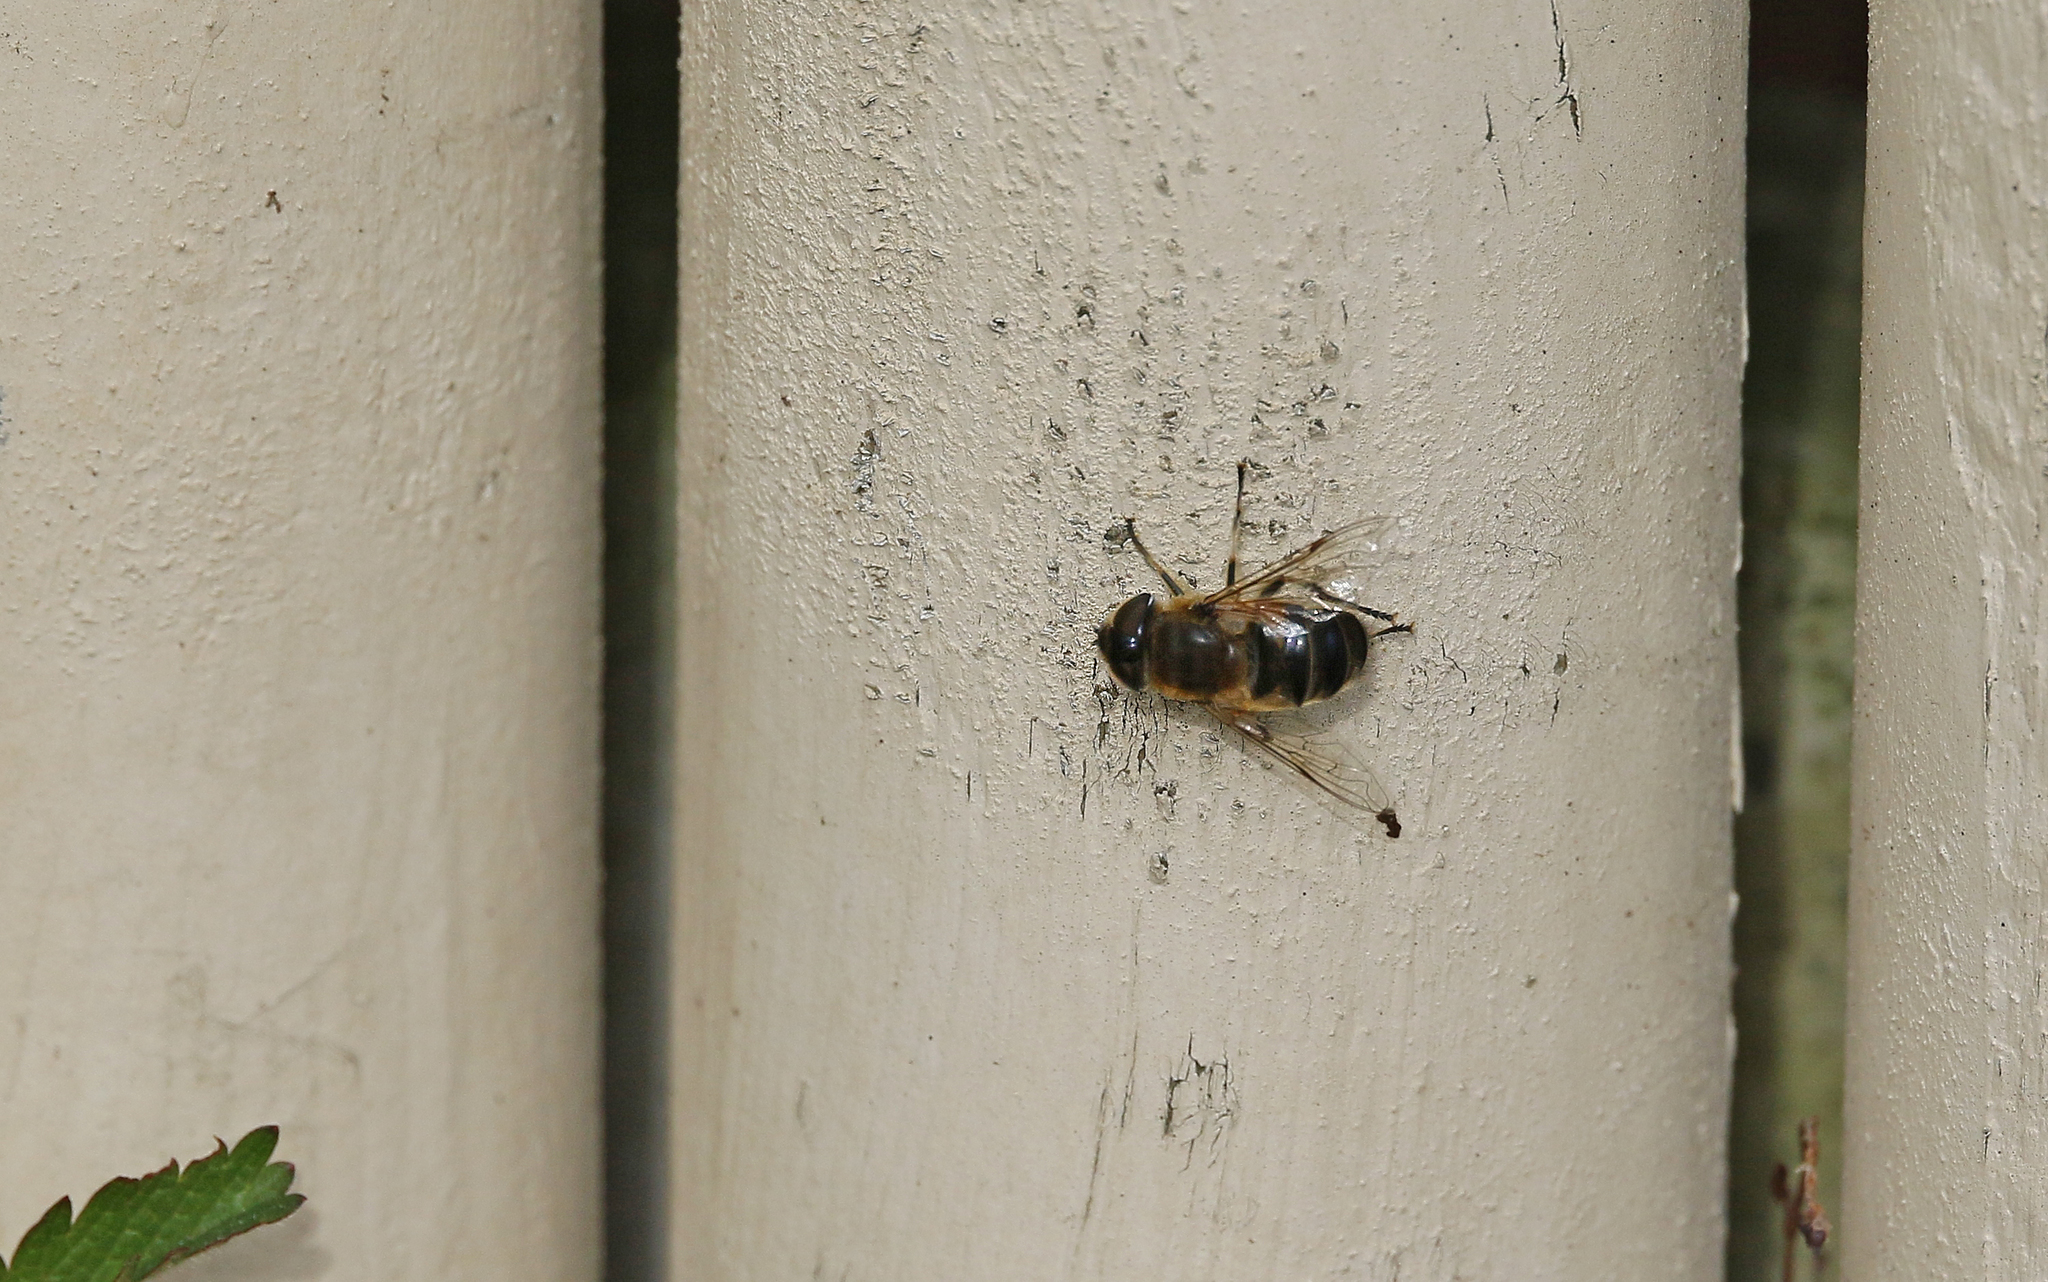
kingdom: Animalia
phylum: Arthropoda
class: Insecta
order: Diptera
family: Syrphidae
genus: Eristalis
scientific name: Eristalis pertinax
